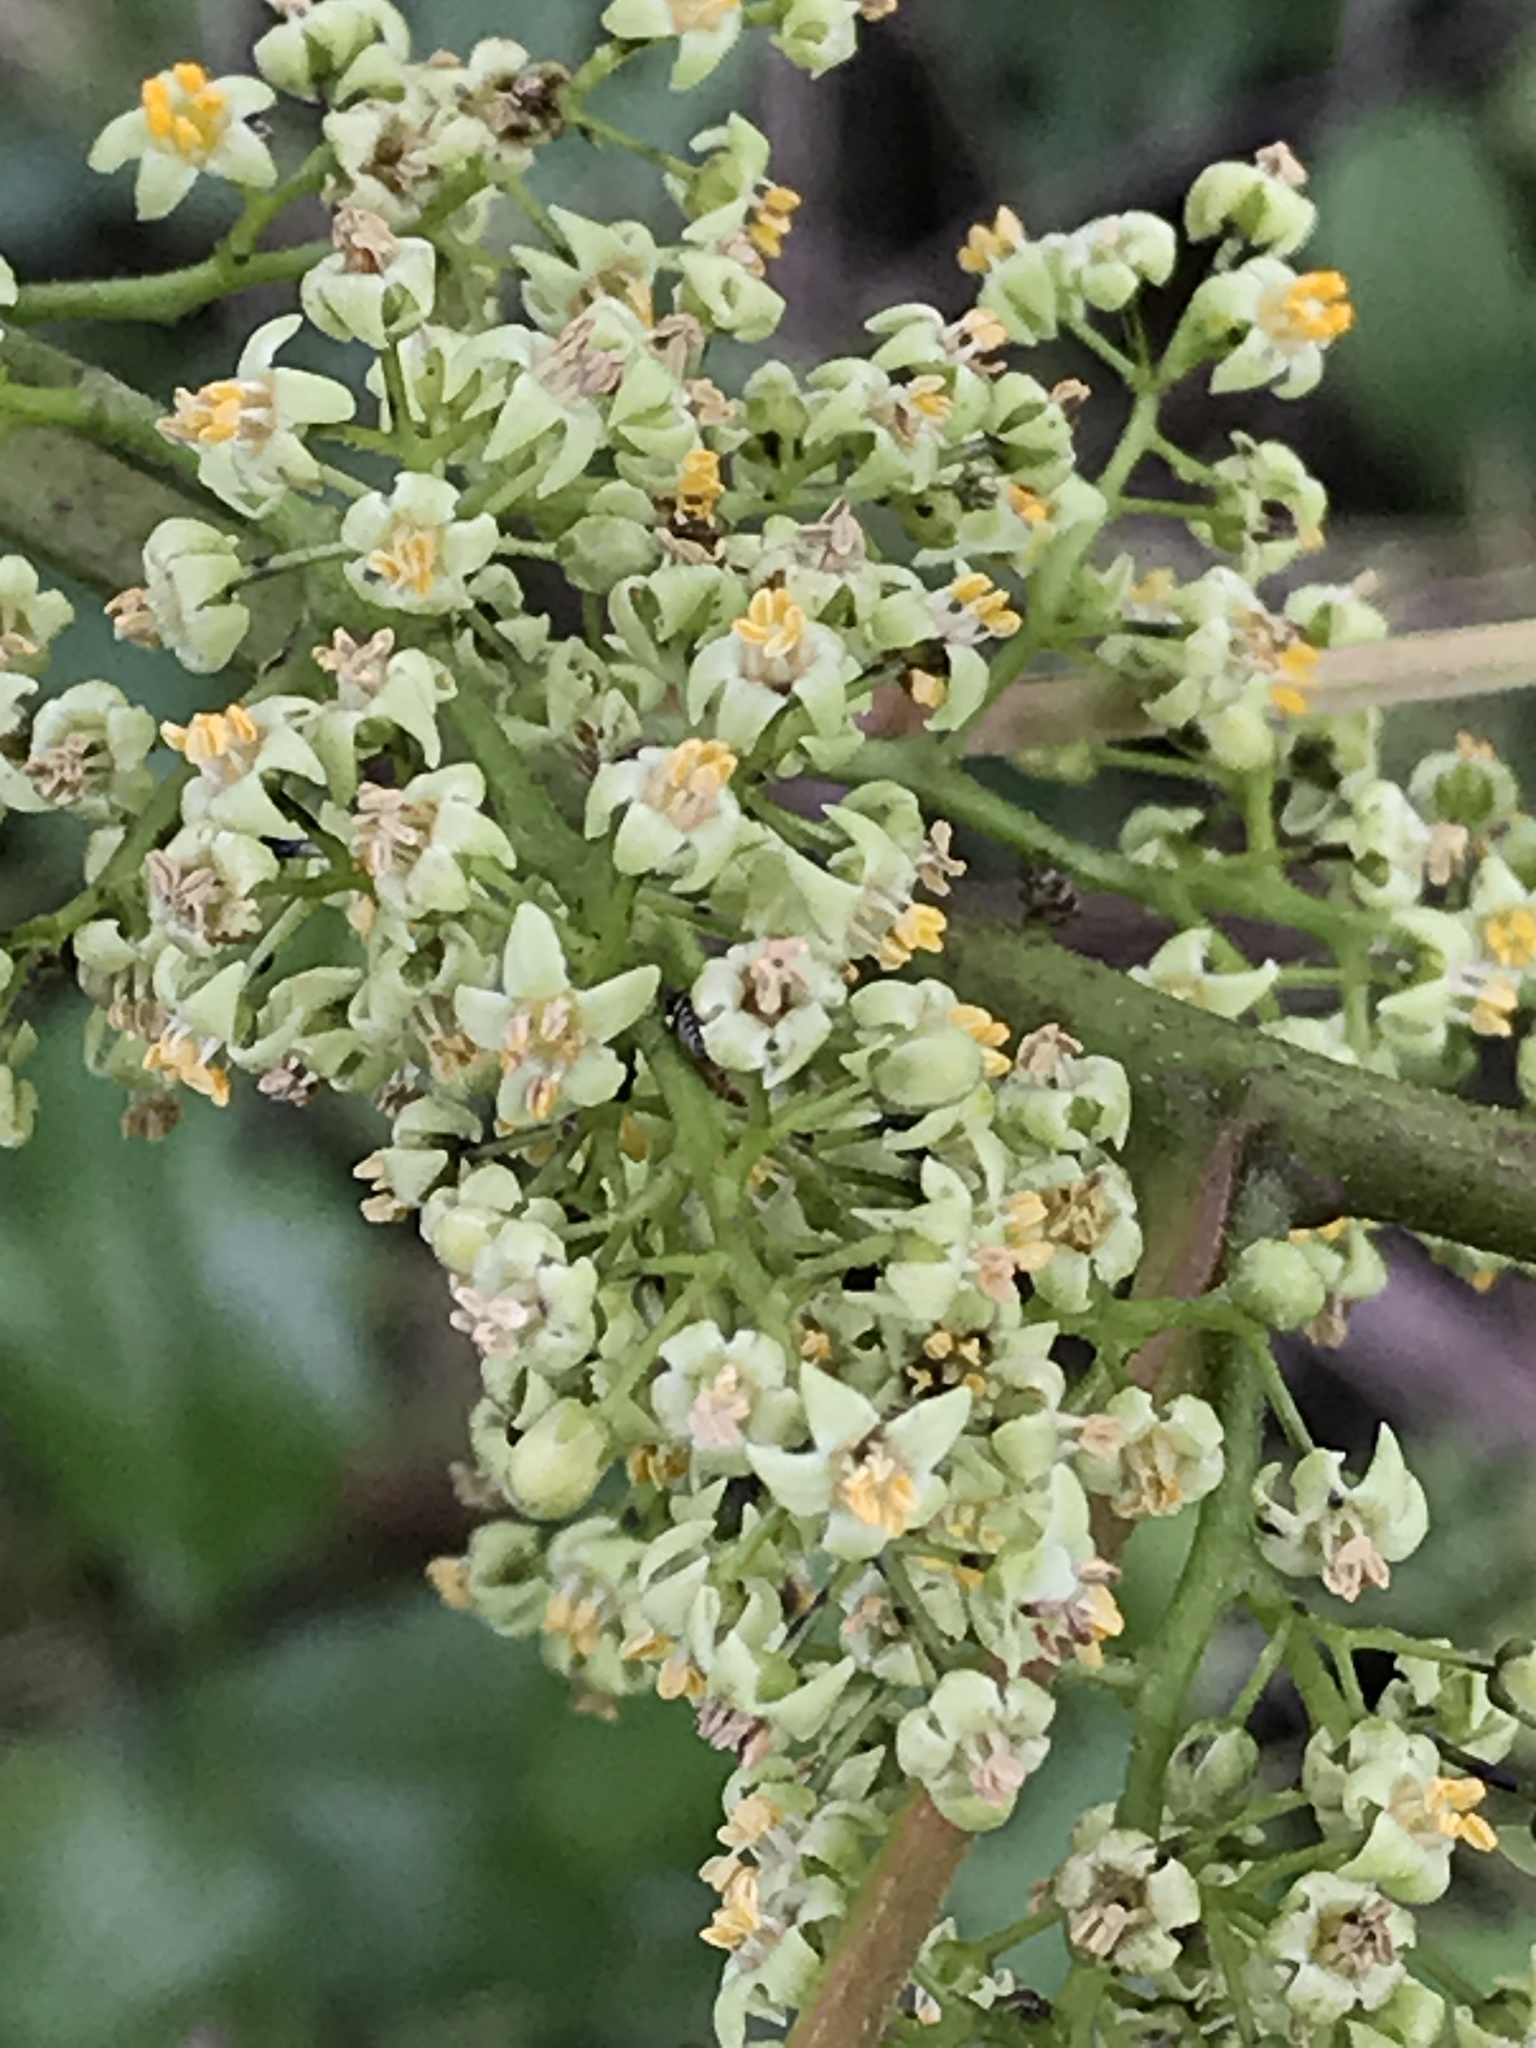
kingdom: Plantae
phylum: Tracheophyta
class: Magnoliopsida
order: Sapindales
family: Anacardiaceae
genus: Toxicodendron
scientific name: Toxicodendron radicans
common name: Poison ivy
